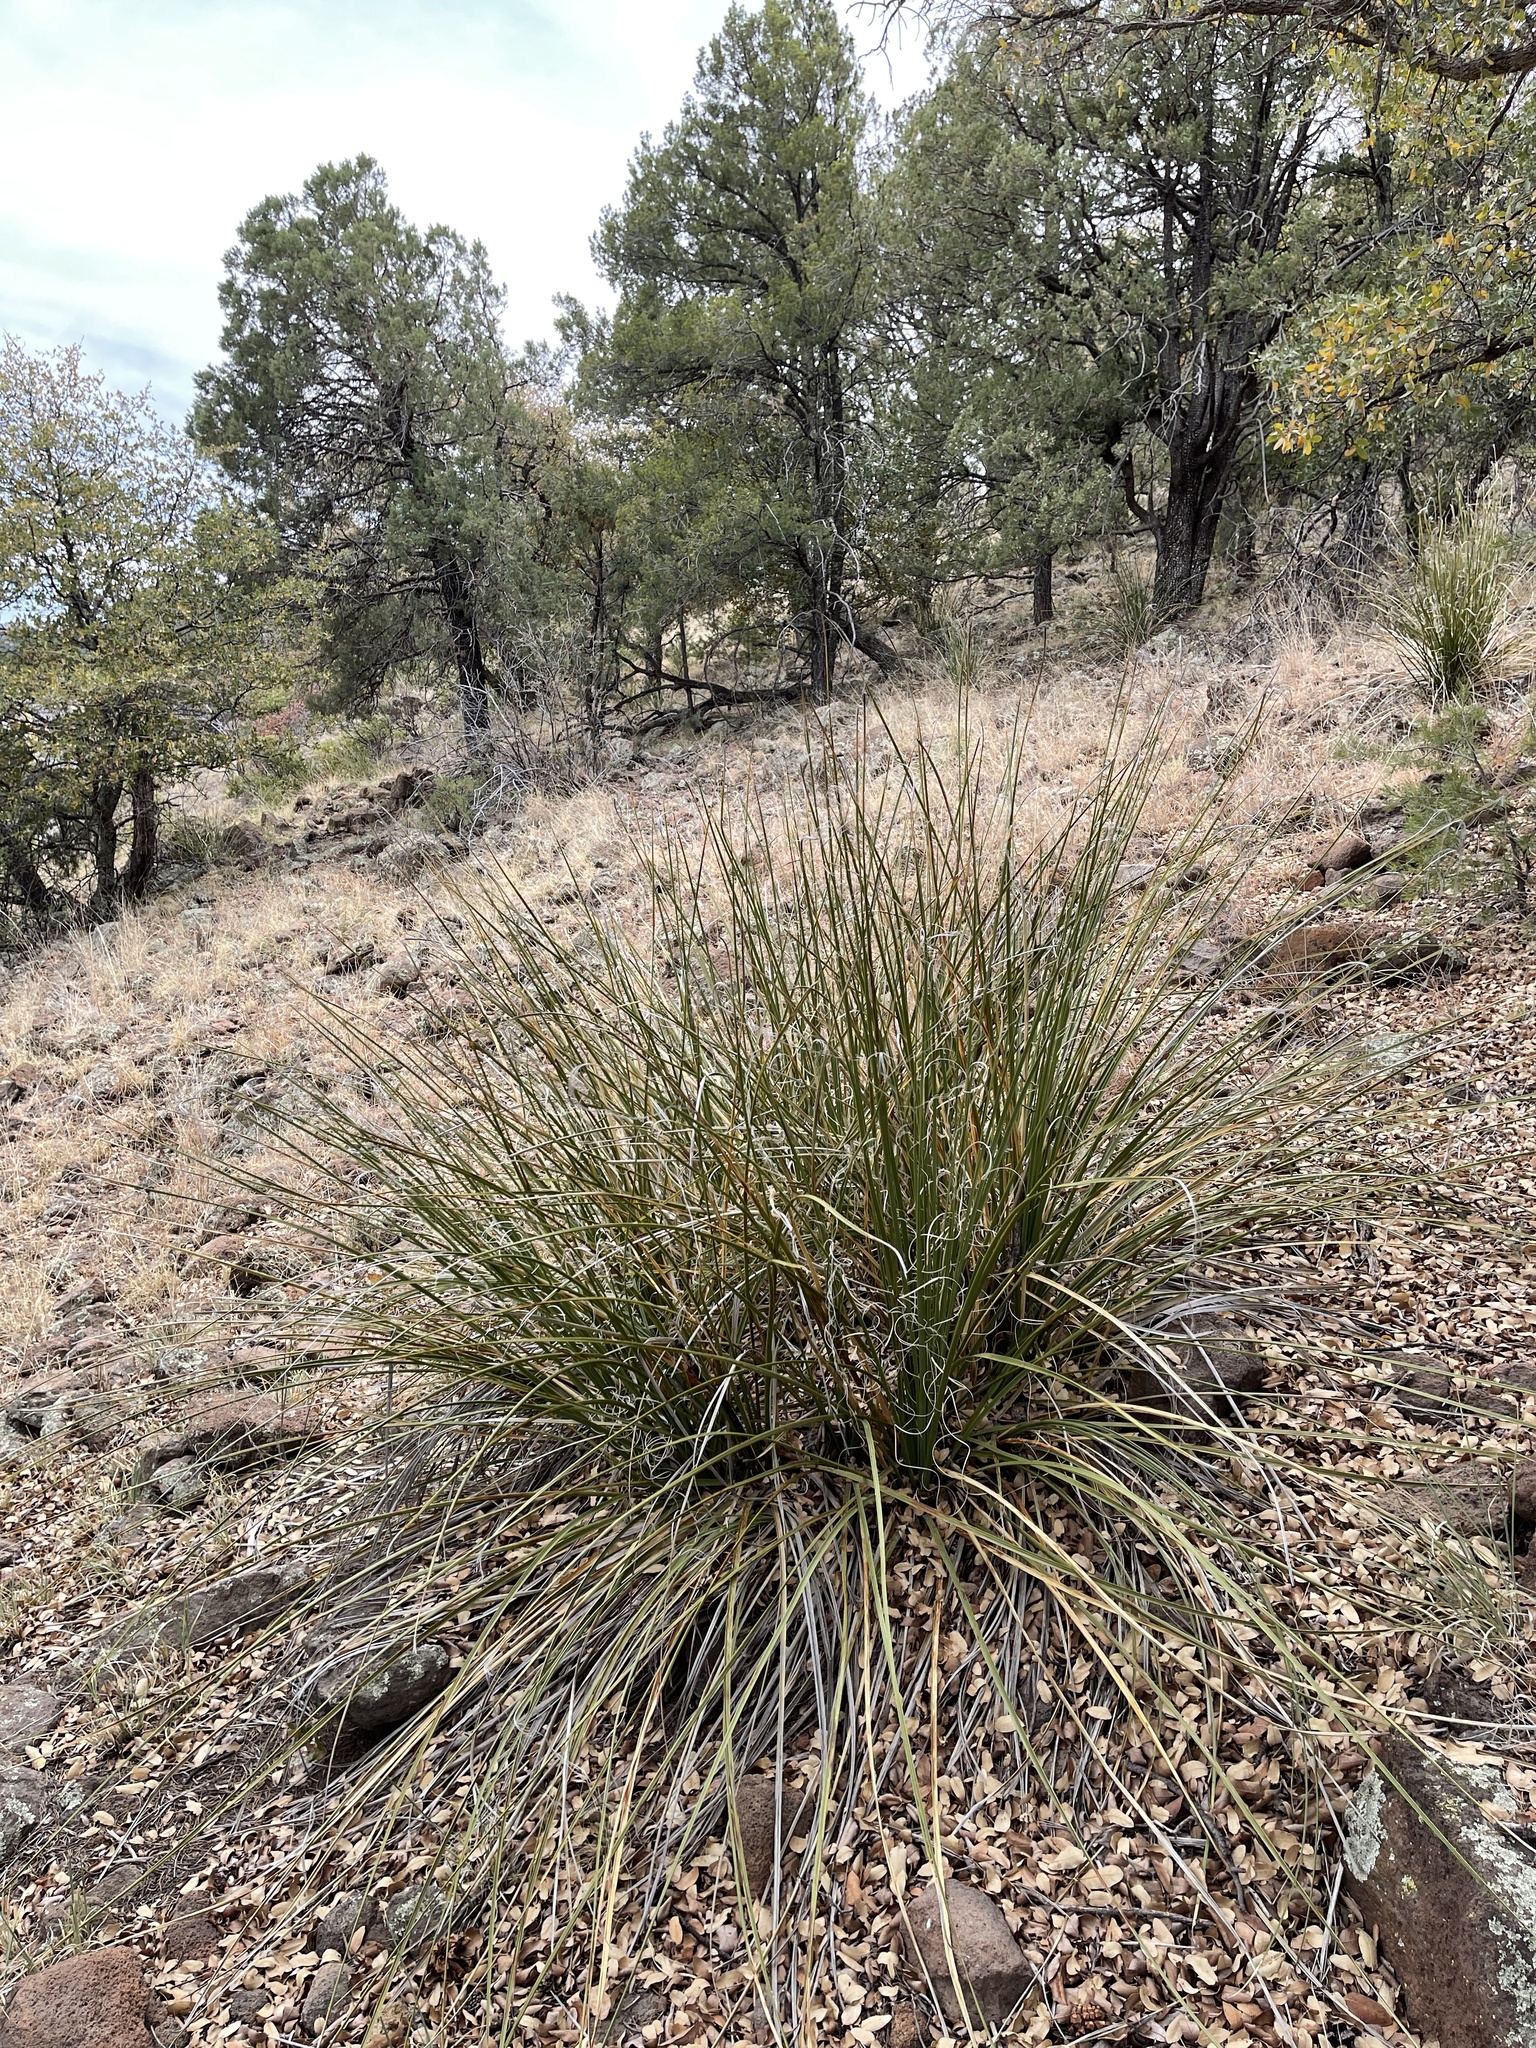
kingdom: Plantae
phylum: Tracheophyta
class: Liliopsida
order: Asparagales
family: Asparagaceae
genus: Nolina
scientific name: Nolina microcarpa
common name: Bear-grass
